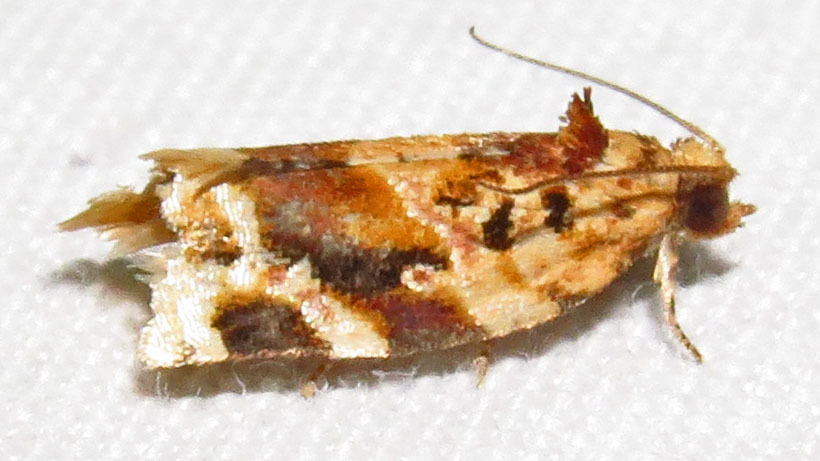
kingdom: Animalia
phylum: Arthropoda
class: Insecta
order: Lepidoptera
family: Tortricidae
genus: Argyrotaenia
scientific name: Argyrotaenia velutinana
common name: Red-banded leafroller moth
